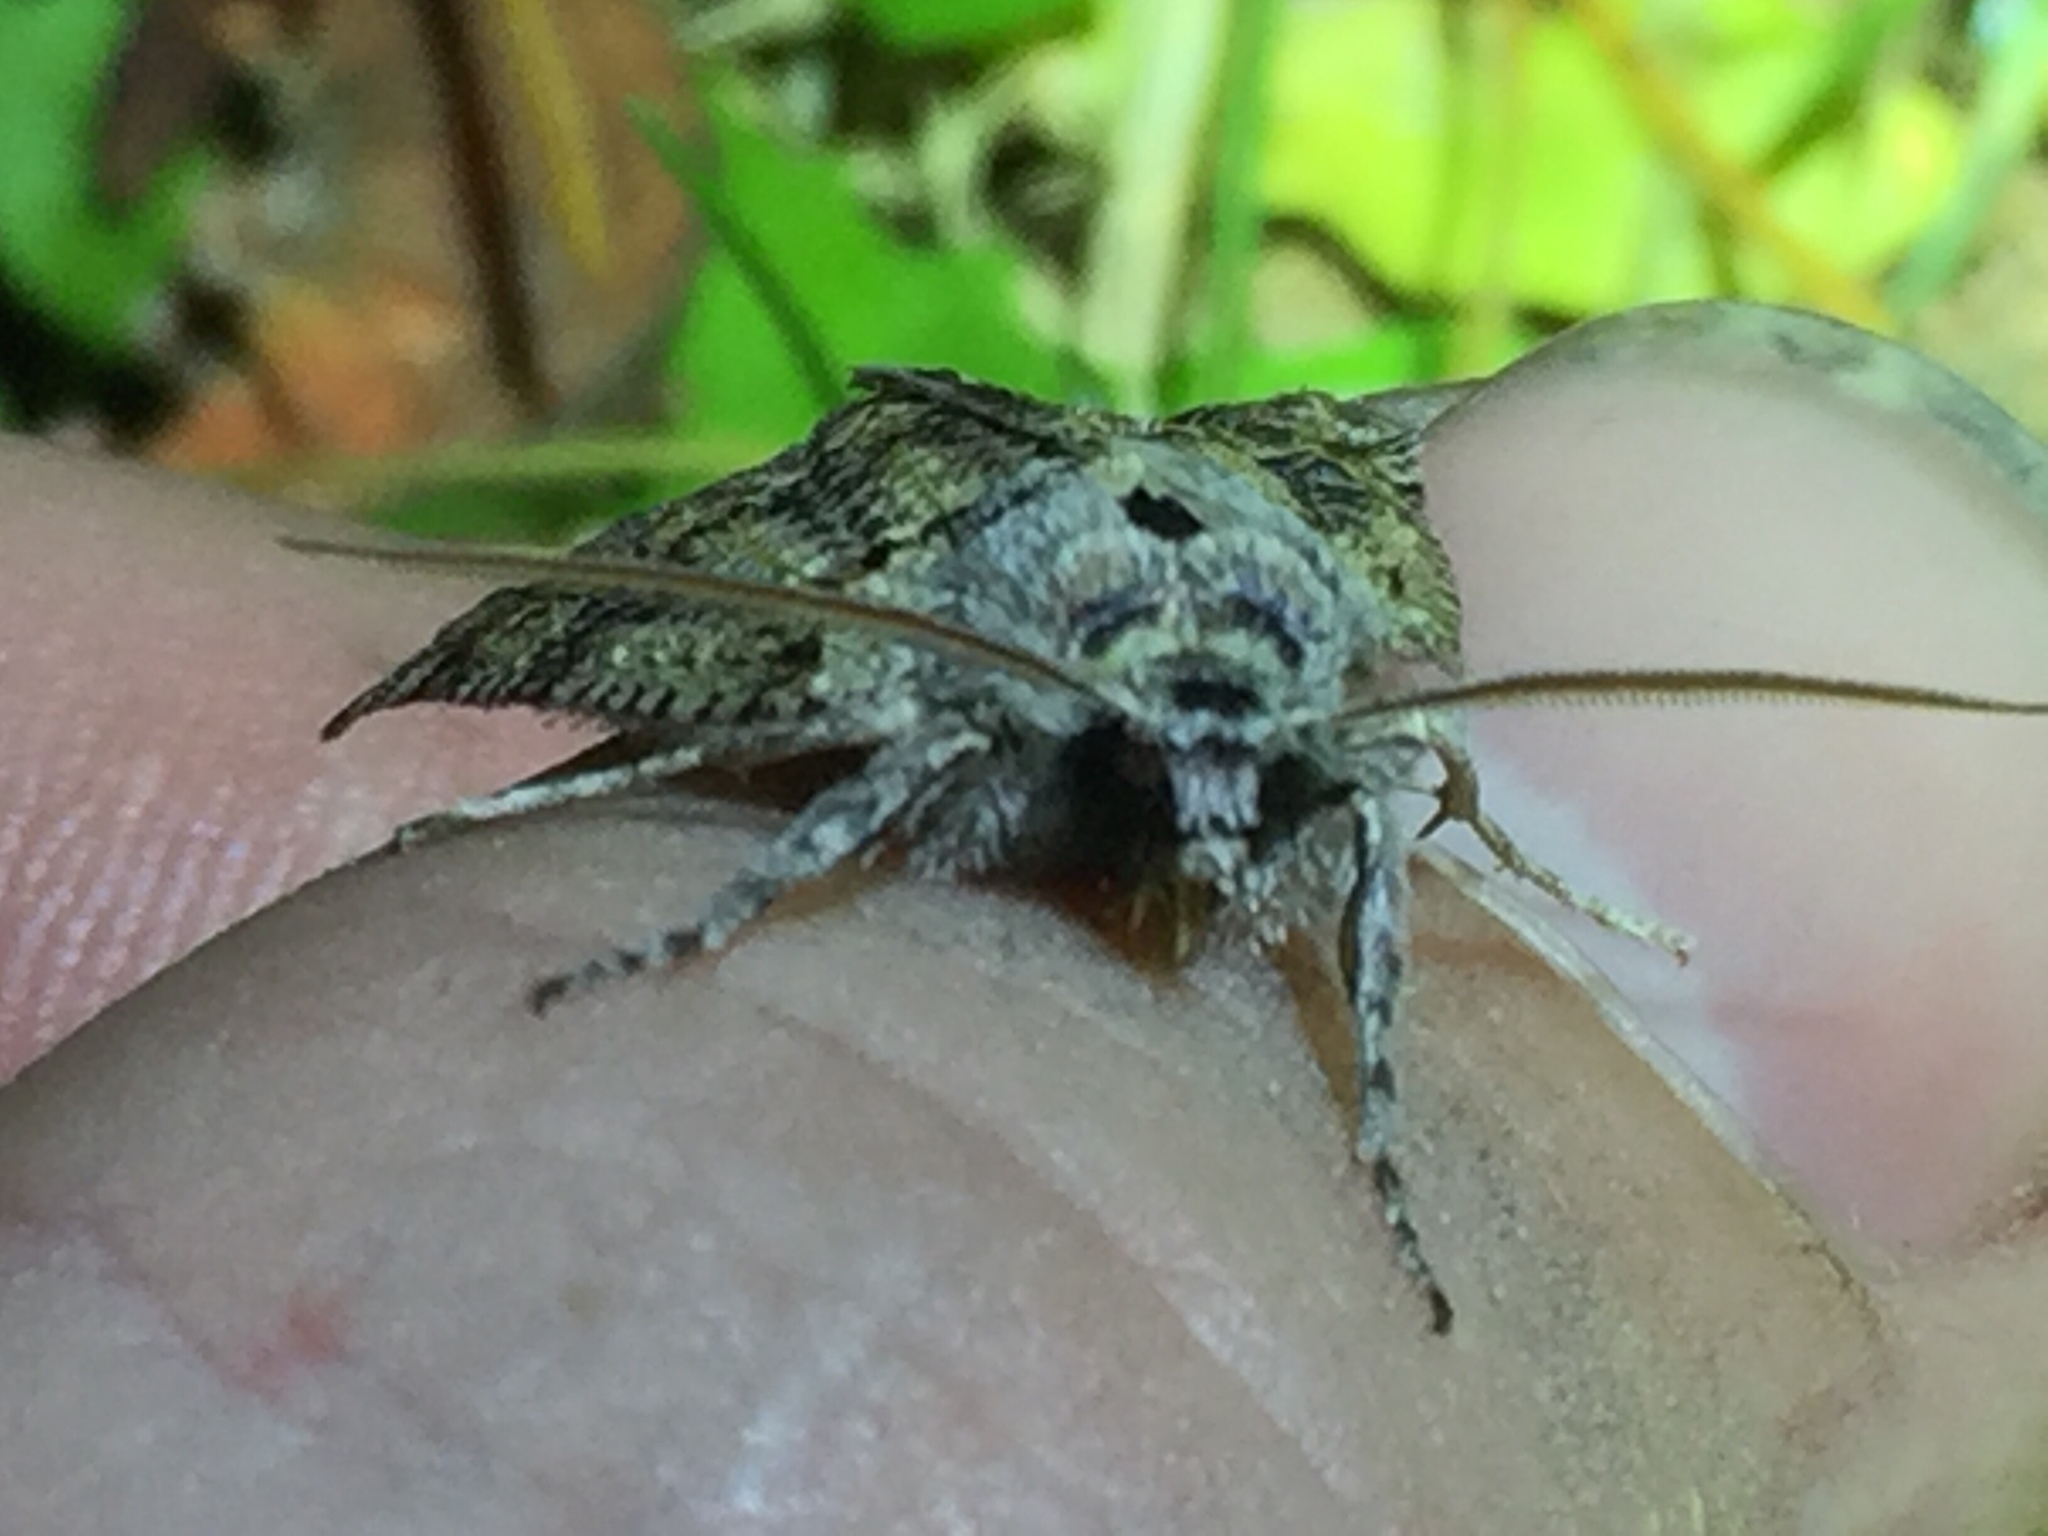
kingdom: Animalia
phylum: Arthropoda
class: Insecta
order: Lepidoptera
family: Geometridae
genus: Declana
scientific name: Declana floccosa
